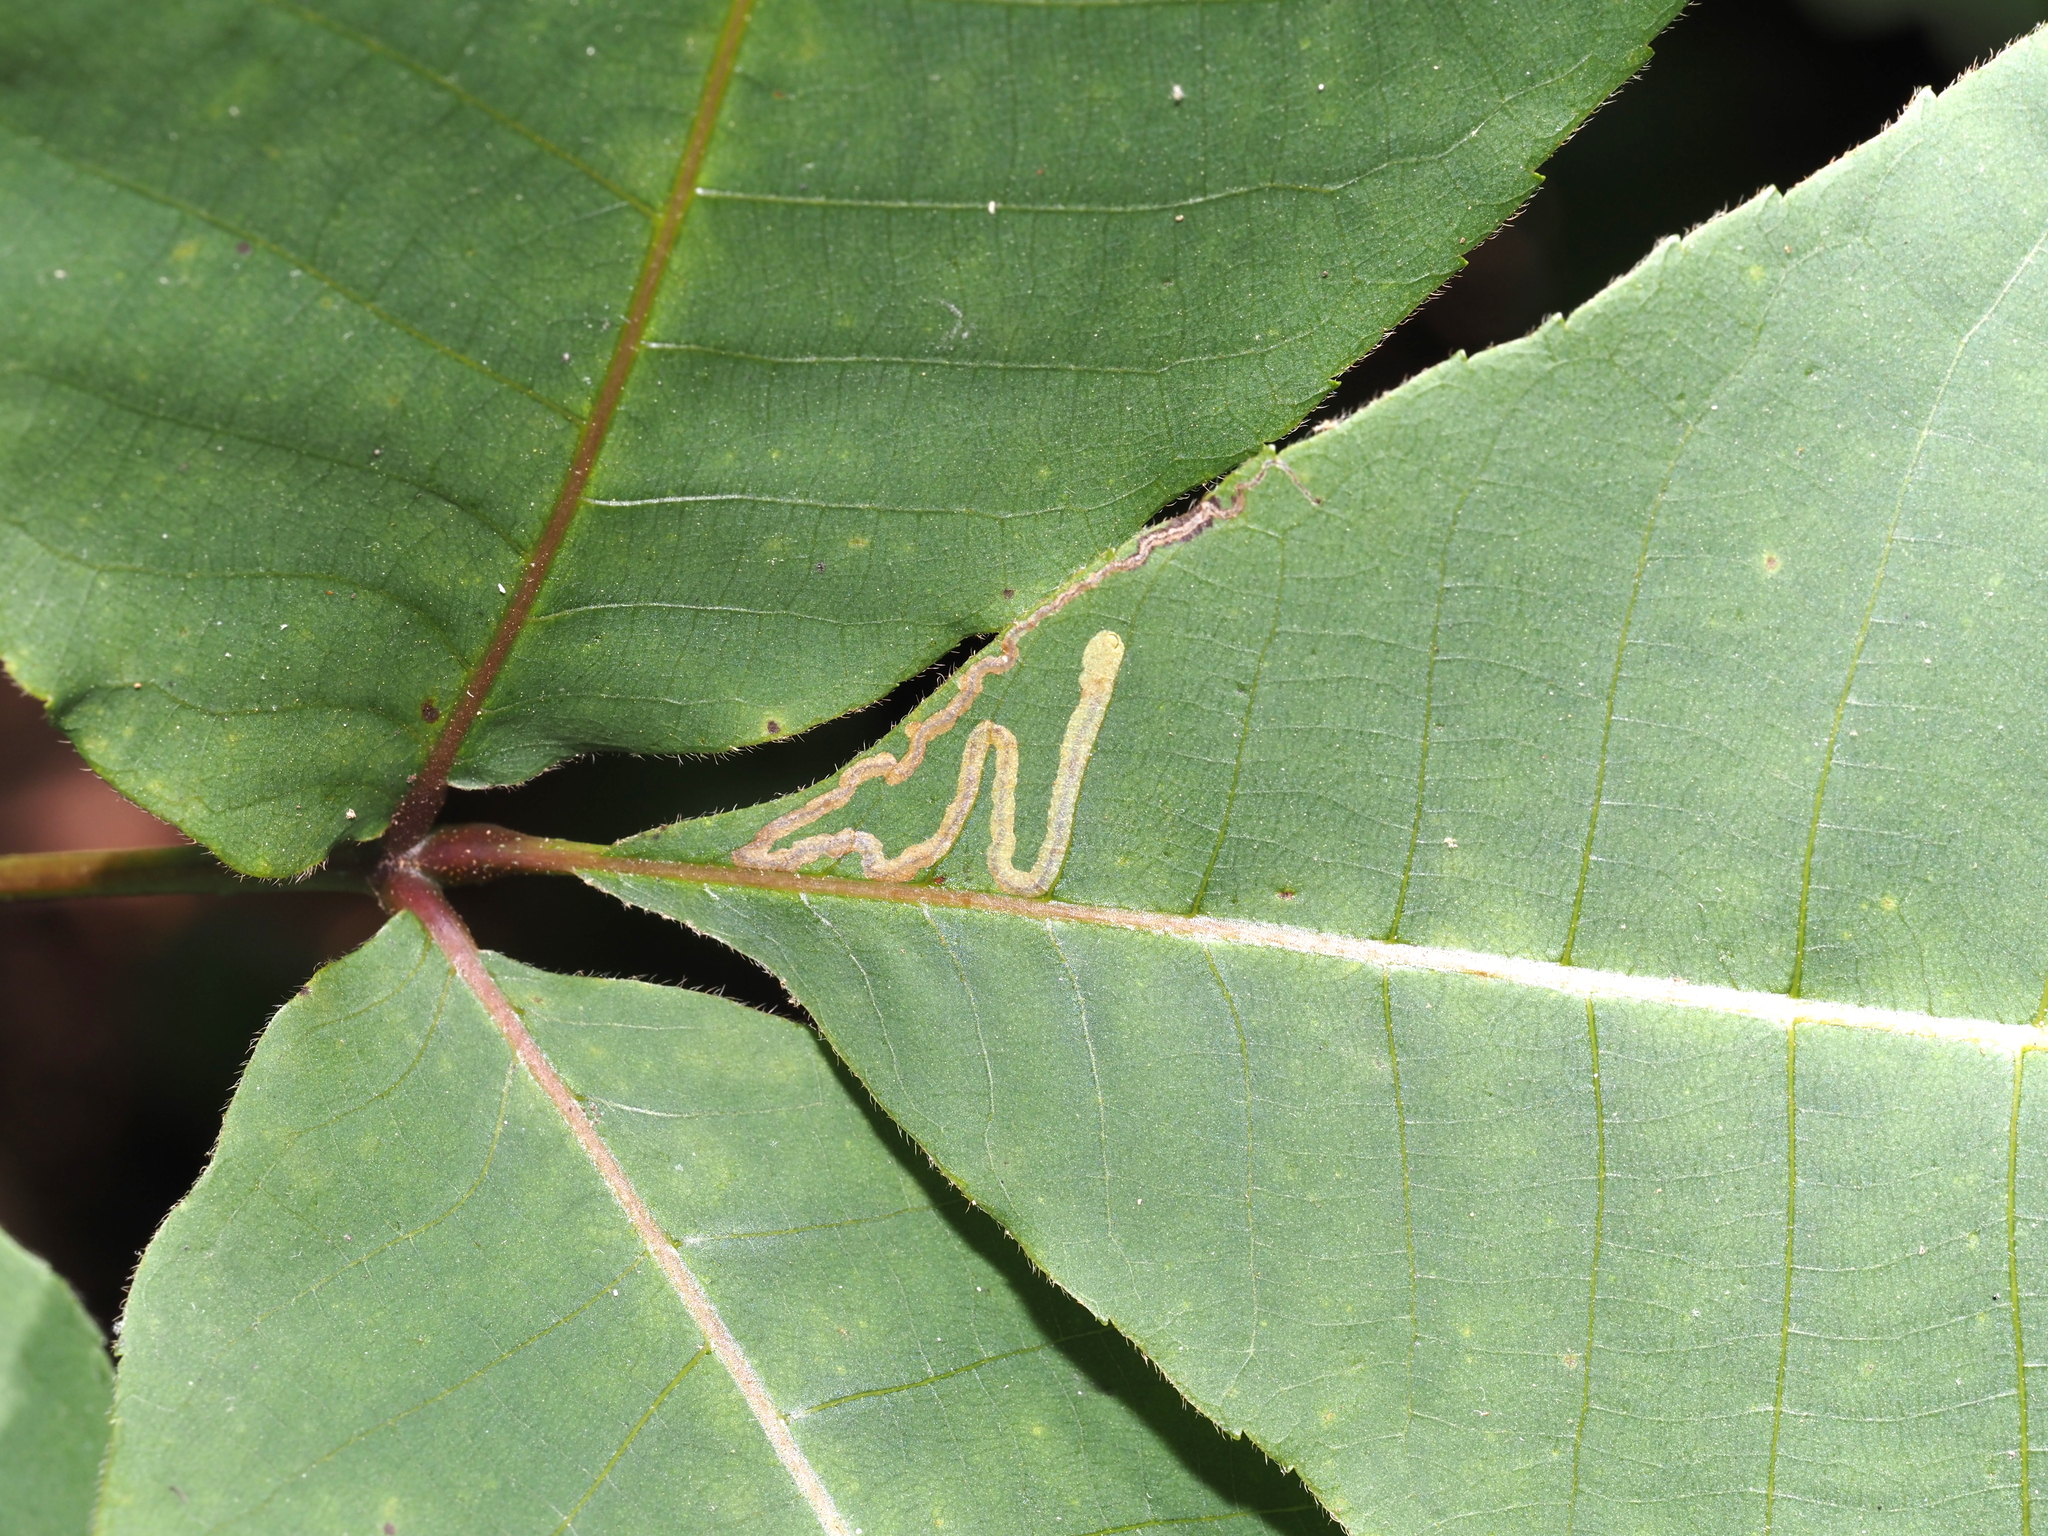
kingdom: Animalia
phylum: Arthropoda
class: Insecta
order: Lepidoptera
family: Nepticulidae
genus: Stigmella
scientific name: Stigmella caryaefoliella
